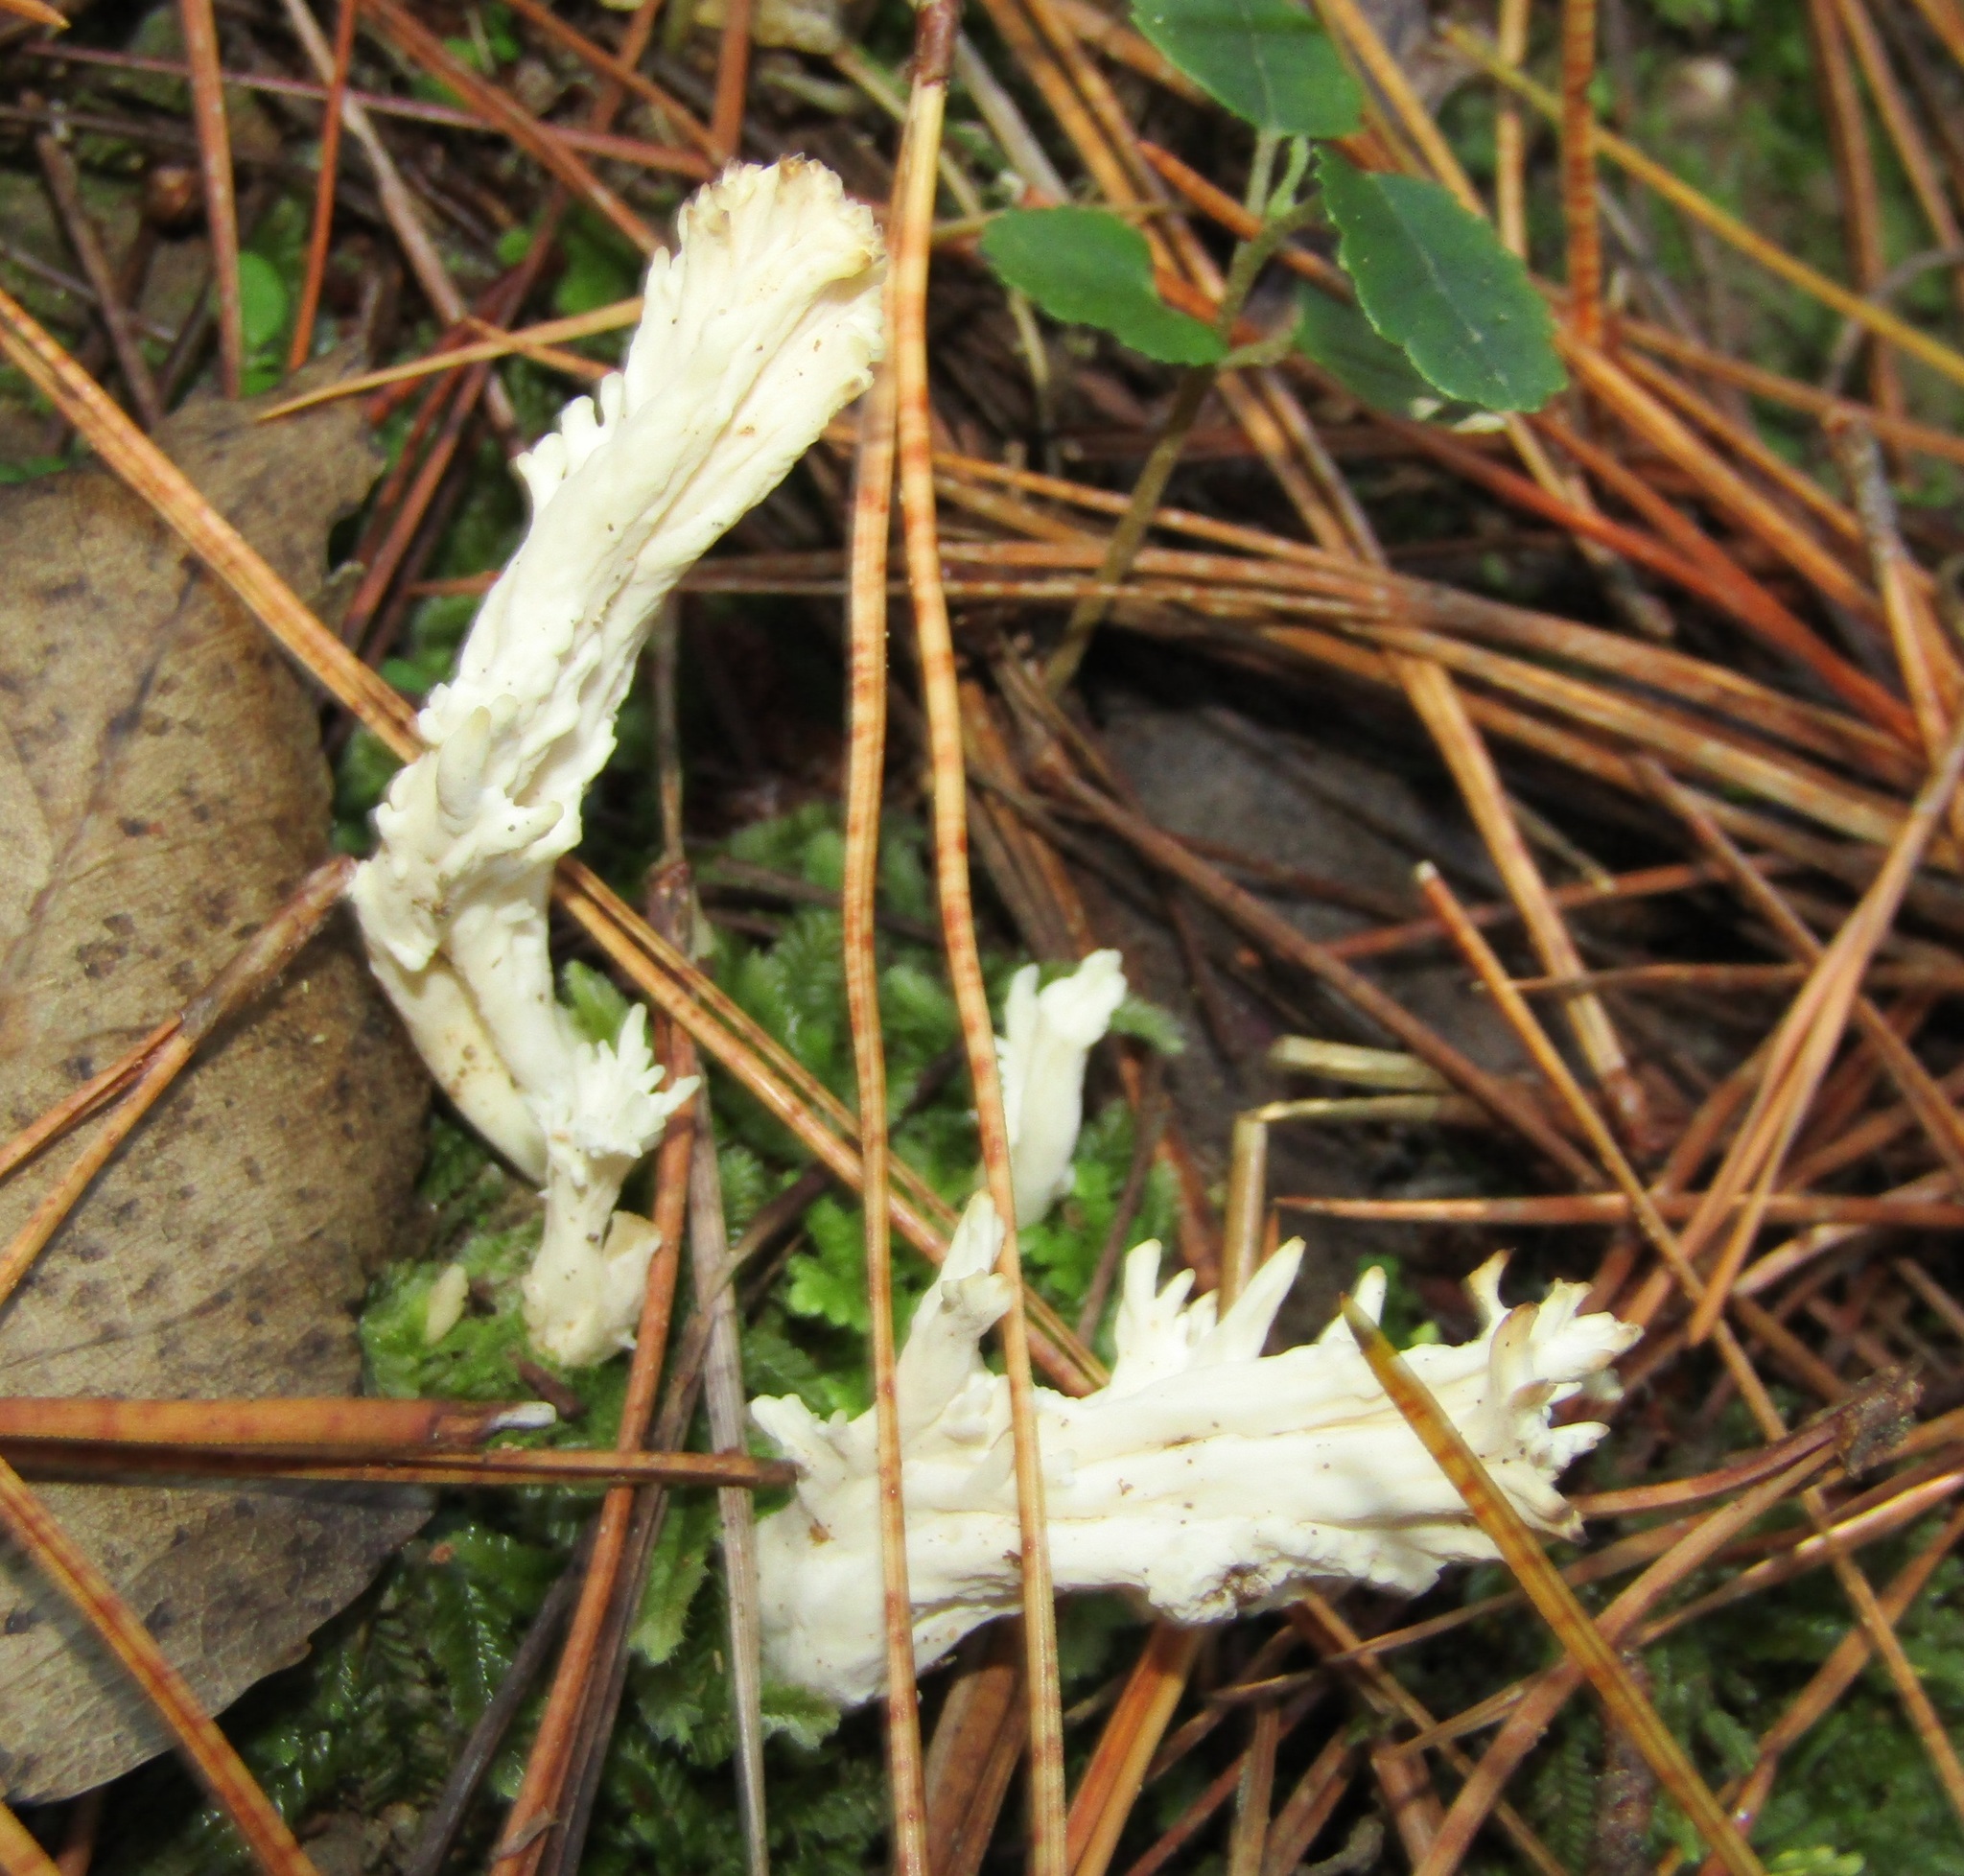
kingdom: Fungi
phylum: Basidiomycota
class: Agaricomycetes
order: Cantharellales
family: Hydnaceae
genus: Clavulina
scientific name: Clavulina rugosa
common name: Wrinkled club
